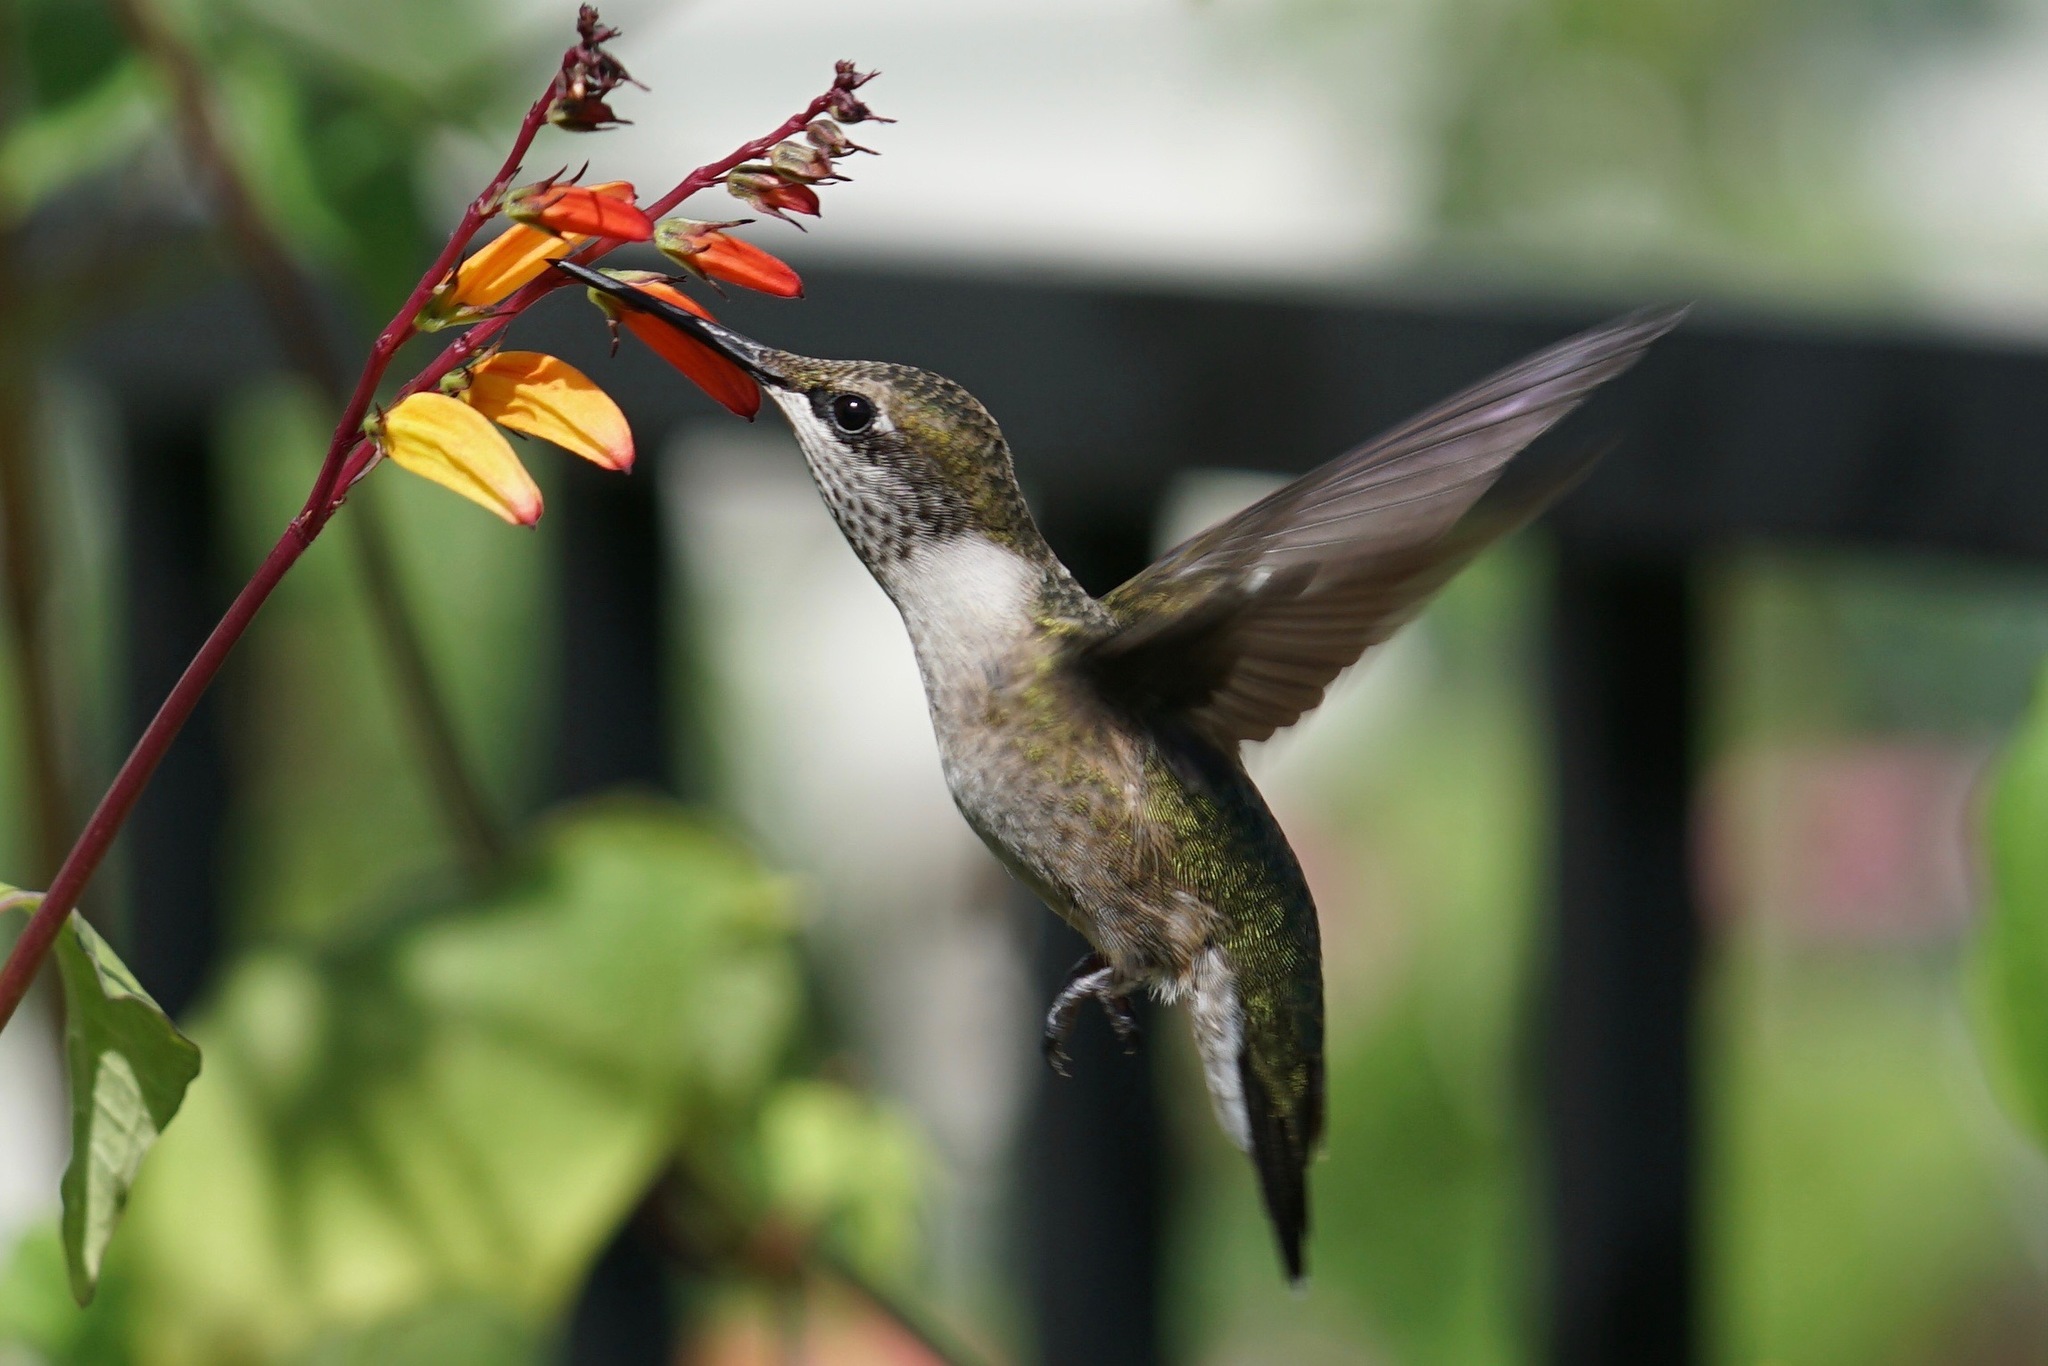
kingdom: Animalia
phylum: Chordata
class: Aves
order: Apodiformes
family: Trochilidae
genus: Archilochus
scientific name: Archilochus colubris
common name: Ruby-throated hummingbird
